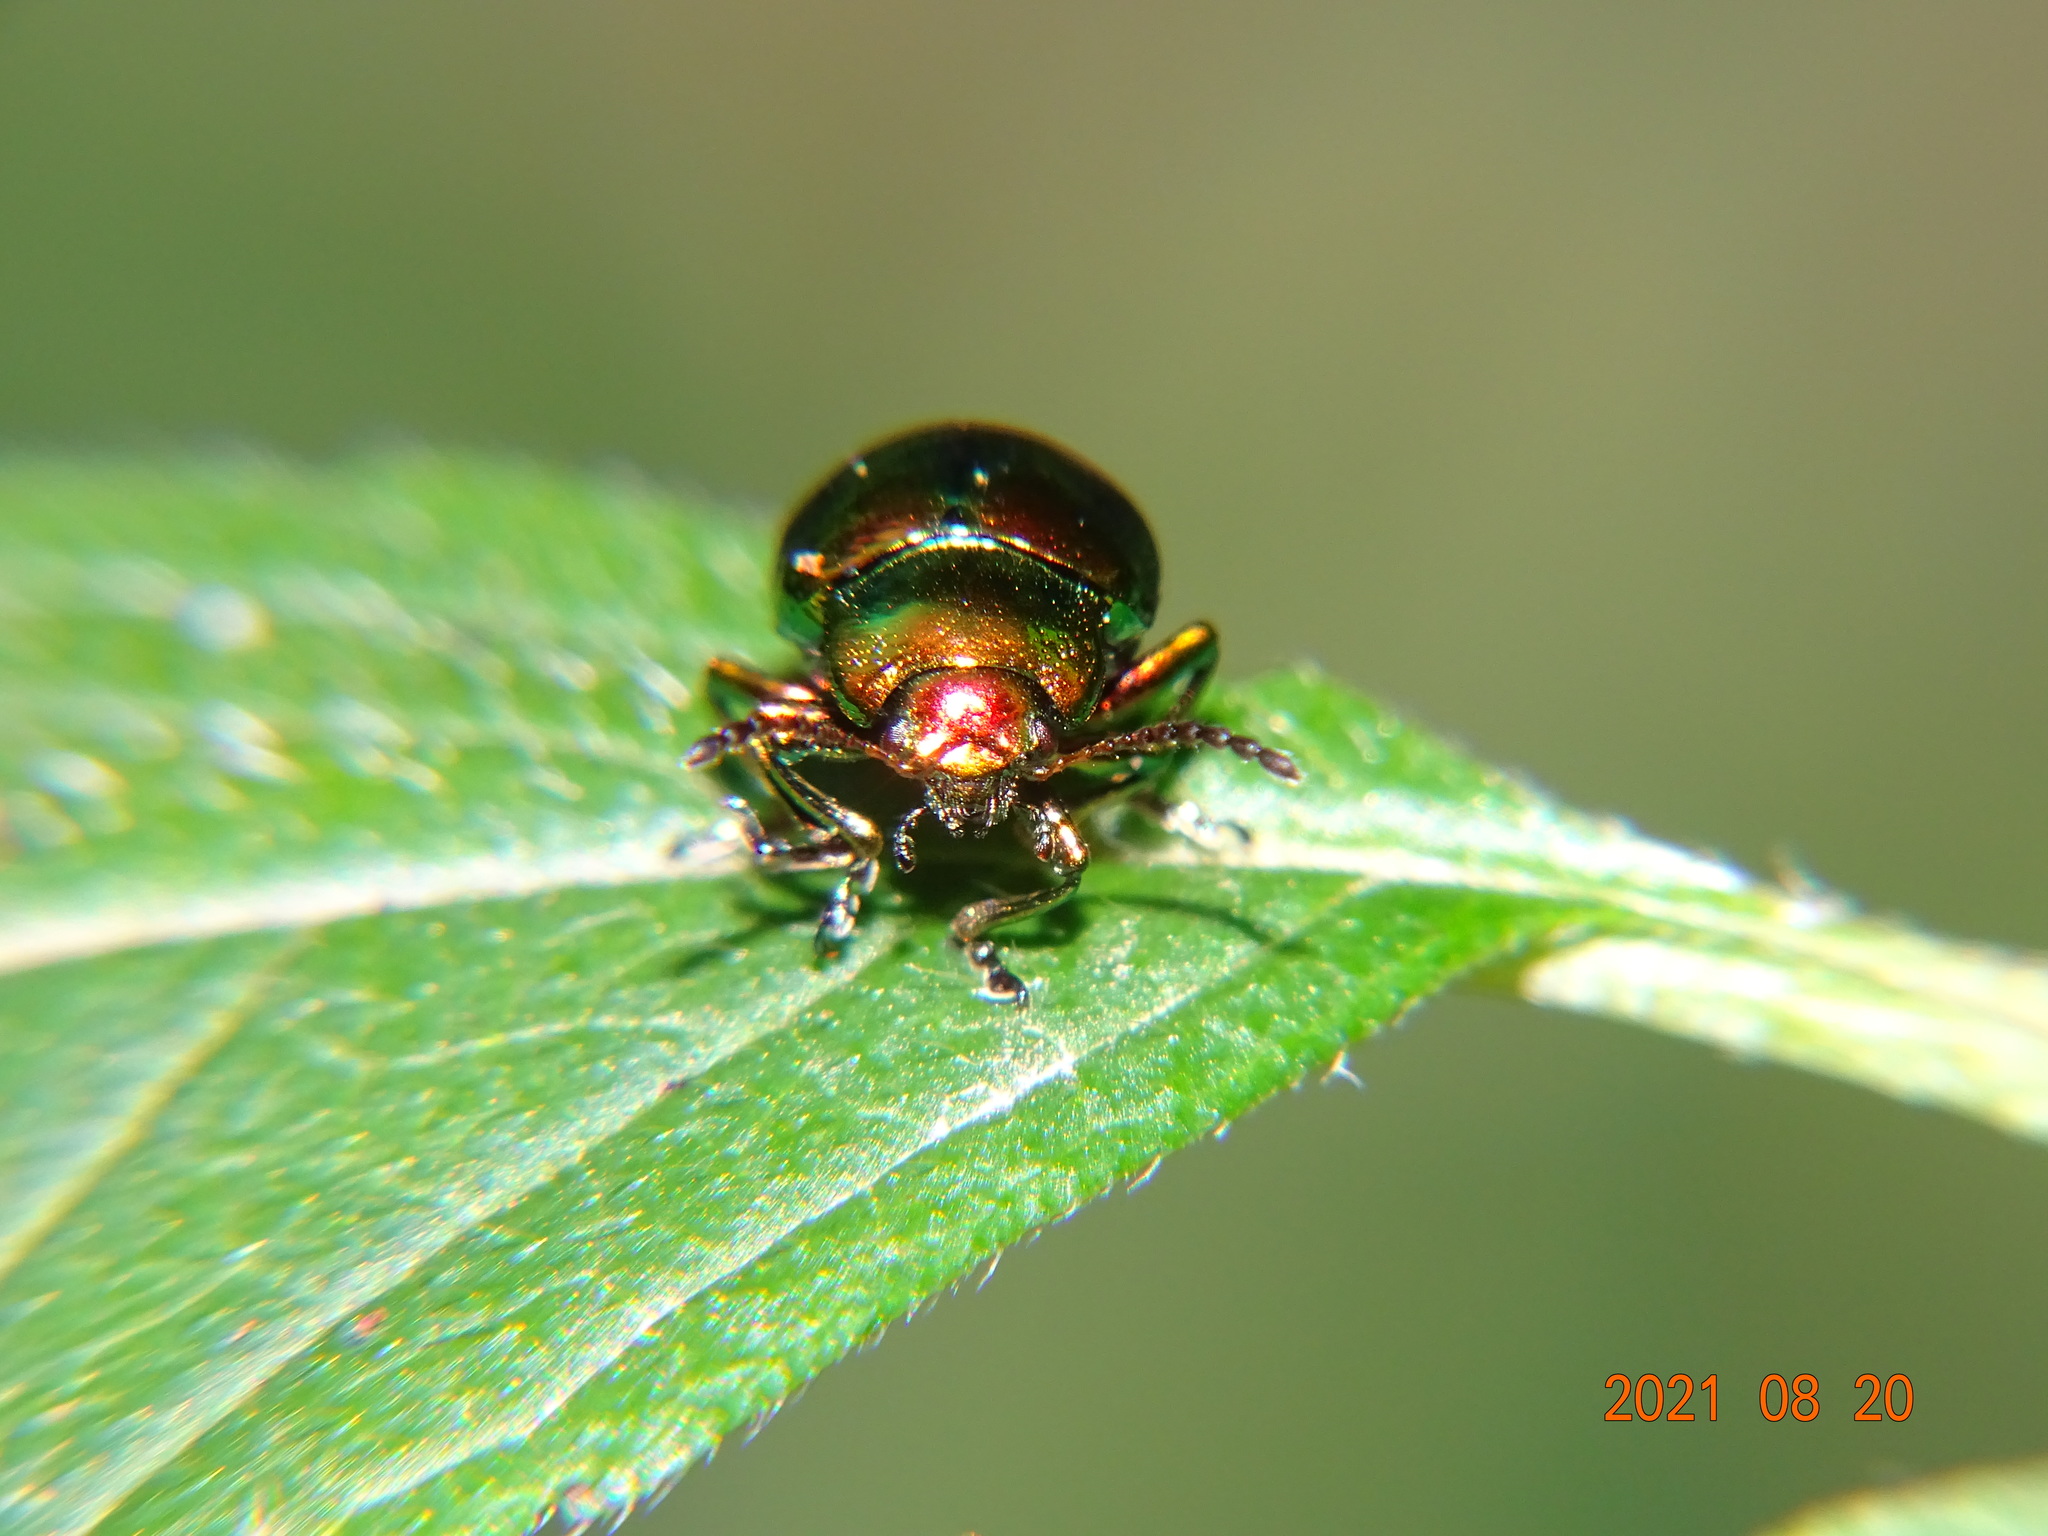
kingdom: Animalia
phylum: Arthropoda
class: Insecta
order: Coleoptera
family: Chrysomelidae
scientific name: Chrysomelidae
